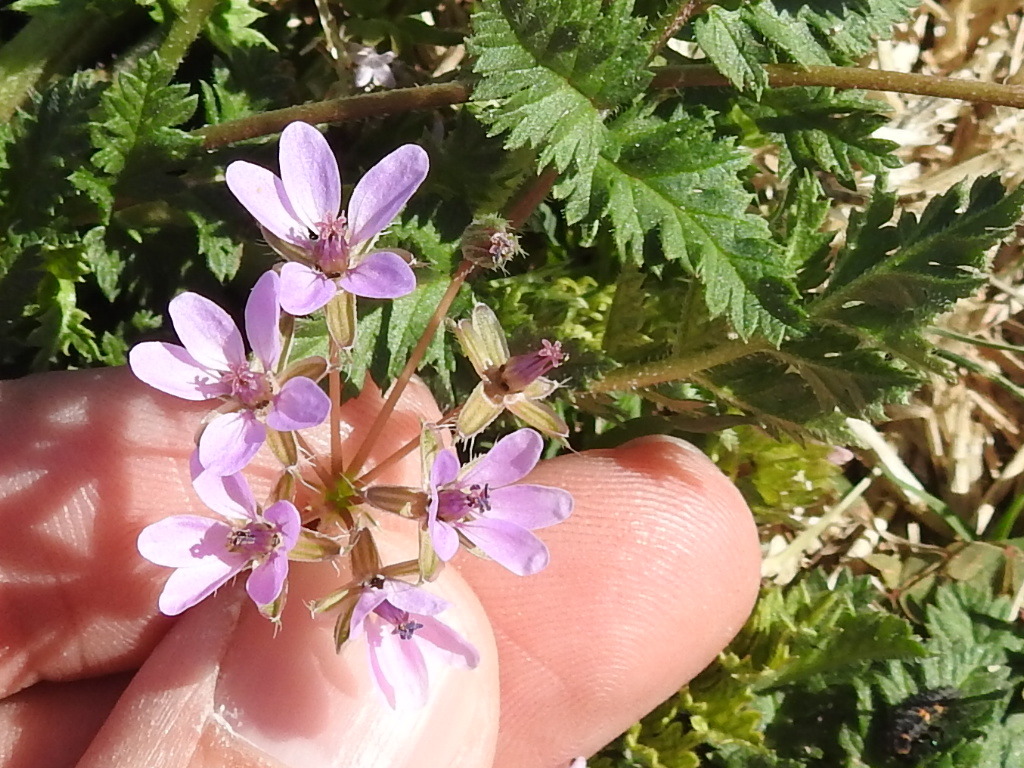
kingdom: Plantae
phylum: Tracheophyta
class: Magnoliopsida
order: Geraniales
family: Geraniaceae
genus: Erodium
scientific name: Erodium cicutarium
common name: Common stork's-bill
